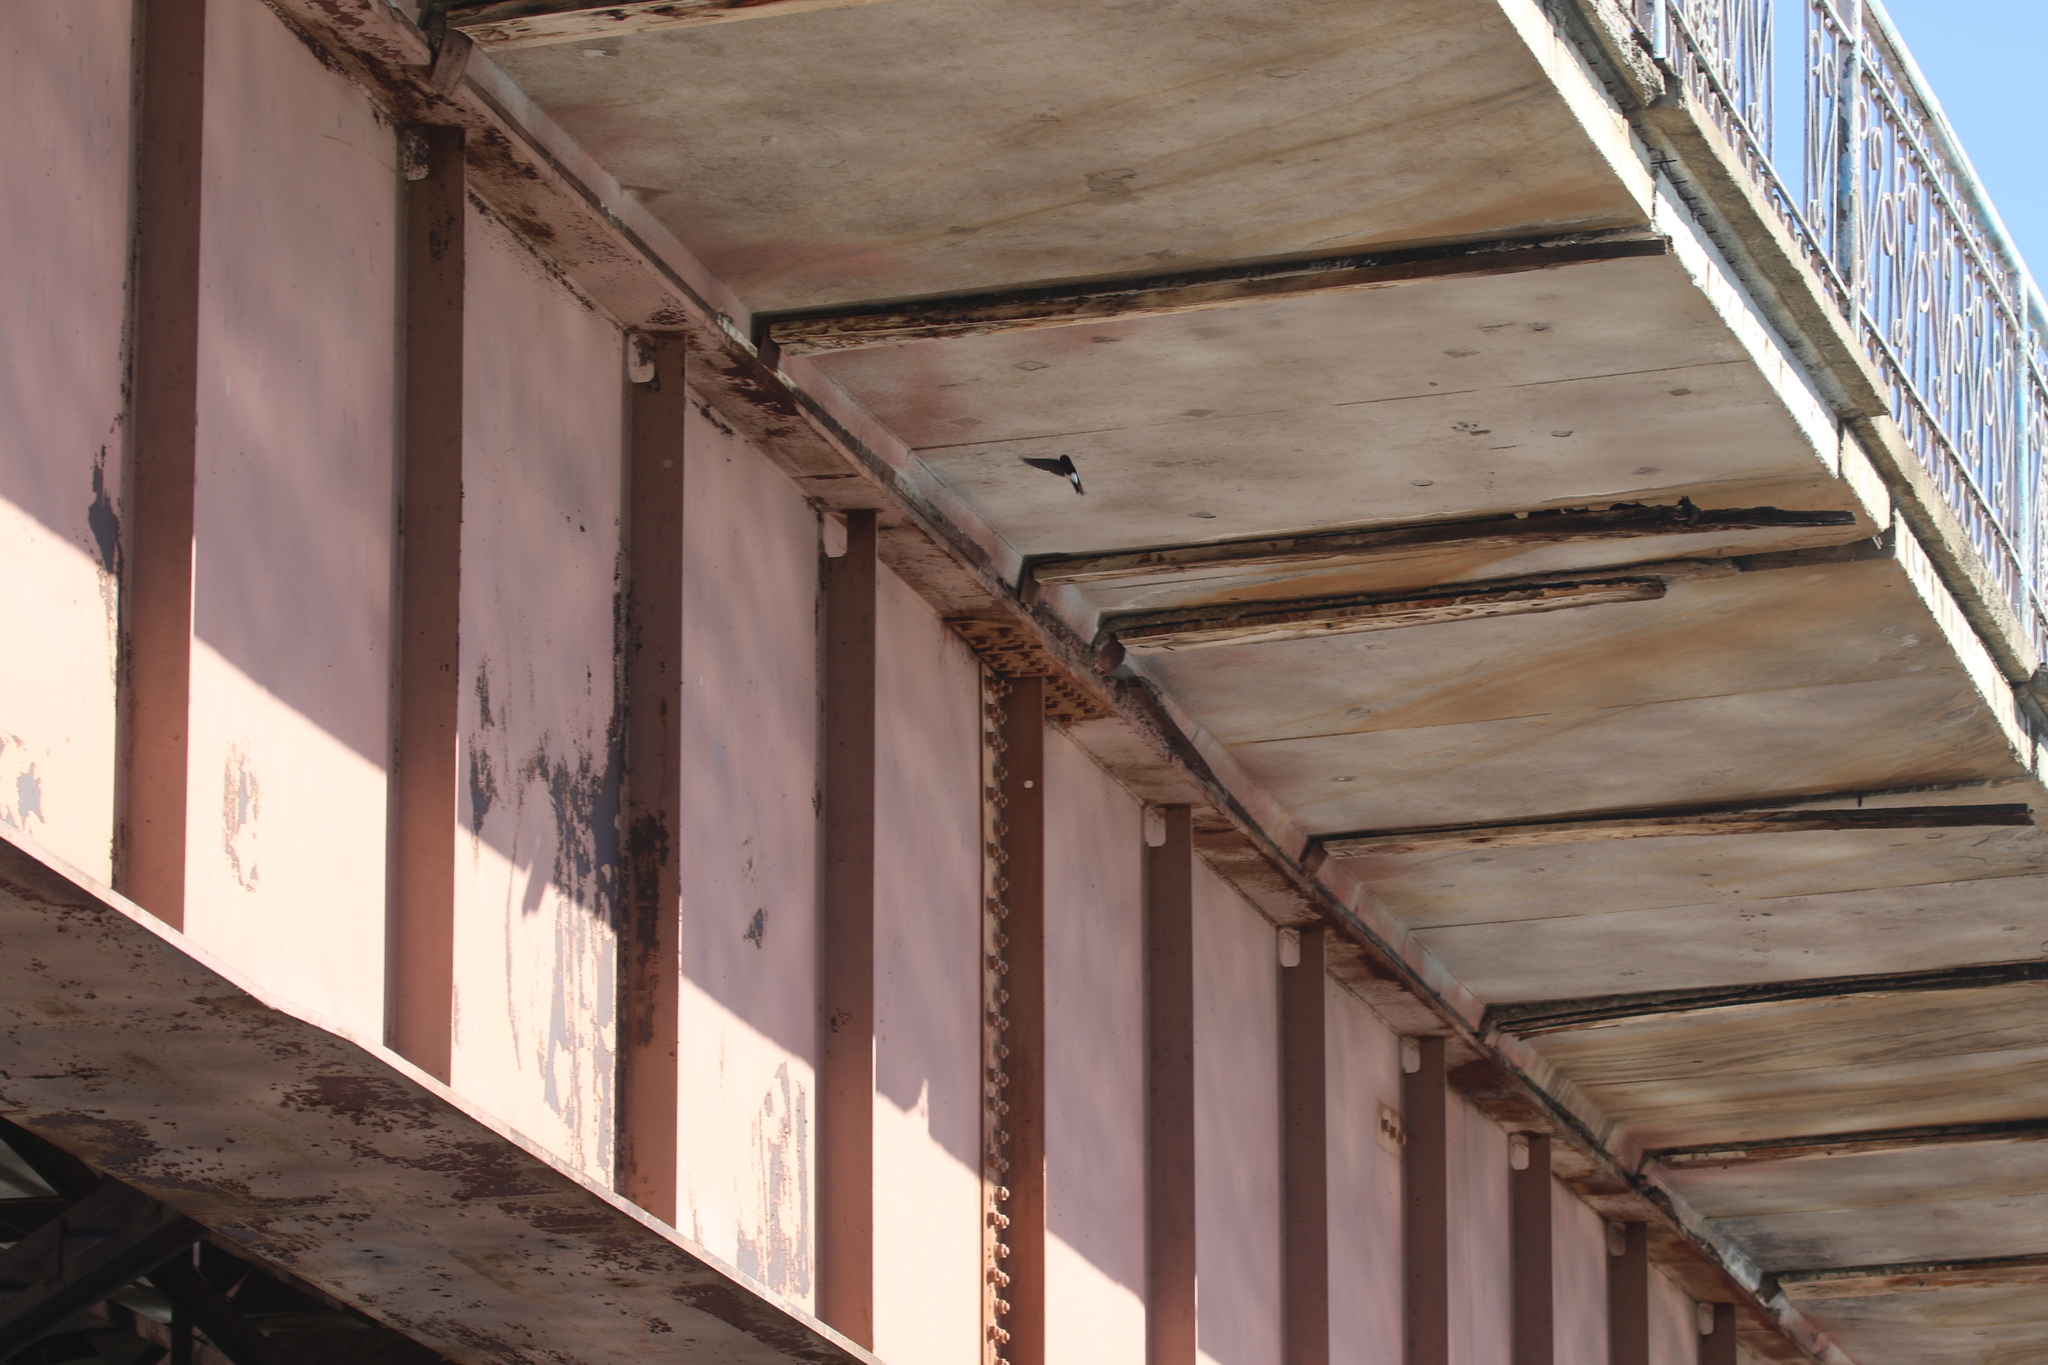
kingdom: Animalia
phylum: Chordata
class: Aves
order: Passeriformes
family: Hirundinidae
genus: Delichon
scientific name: Delichon urbicum
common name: Common house martin
